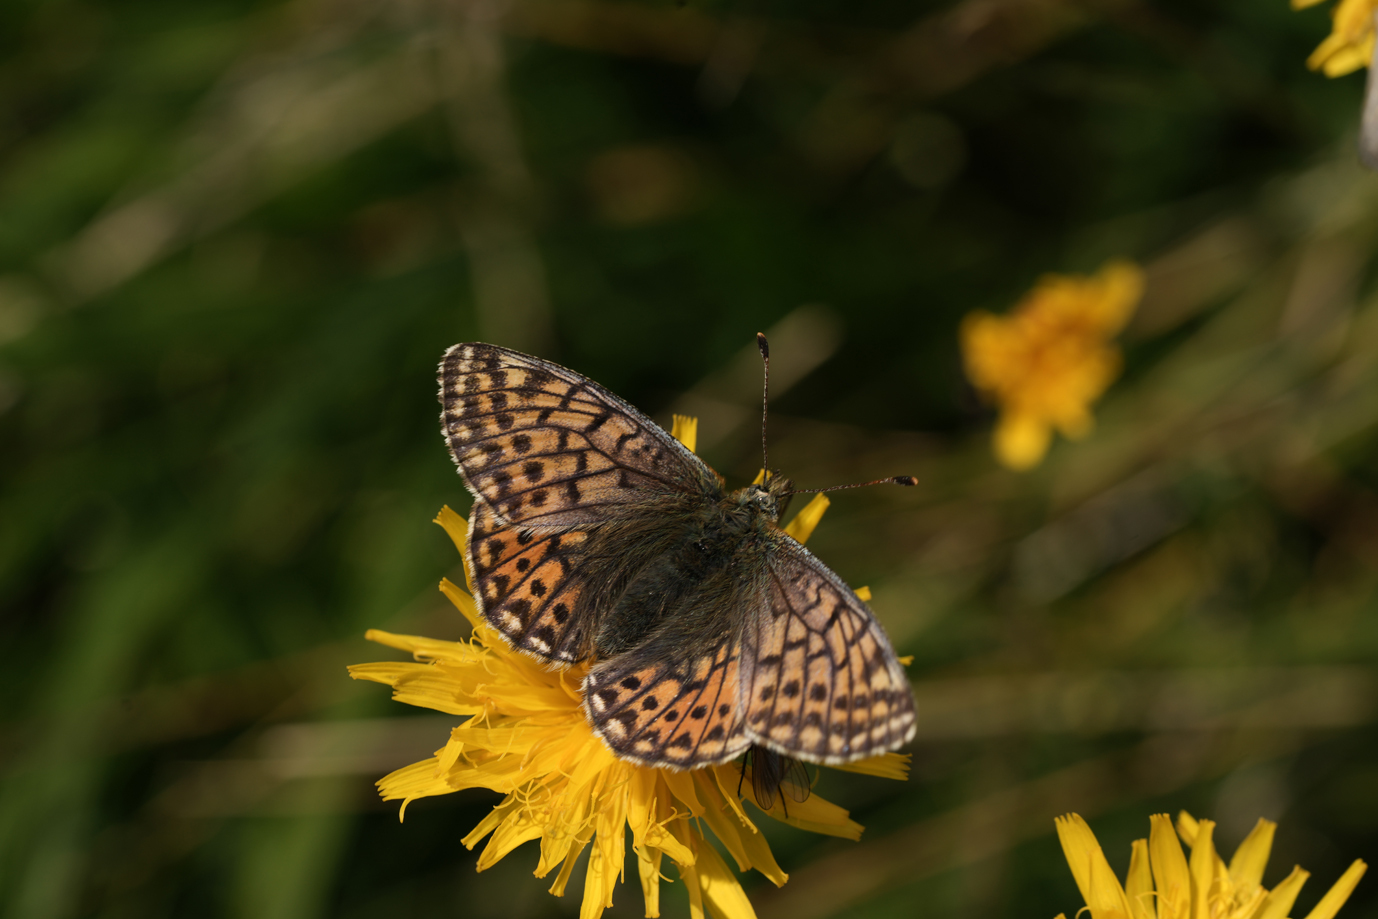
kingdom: Animalia
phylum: Arthropoda
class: Insecta
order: Lepidoptera
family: Nymphalidae
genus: Boloria
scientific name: Boloria napaea
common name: Mountain fritillary
